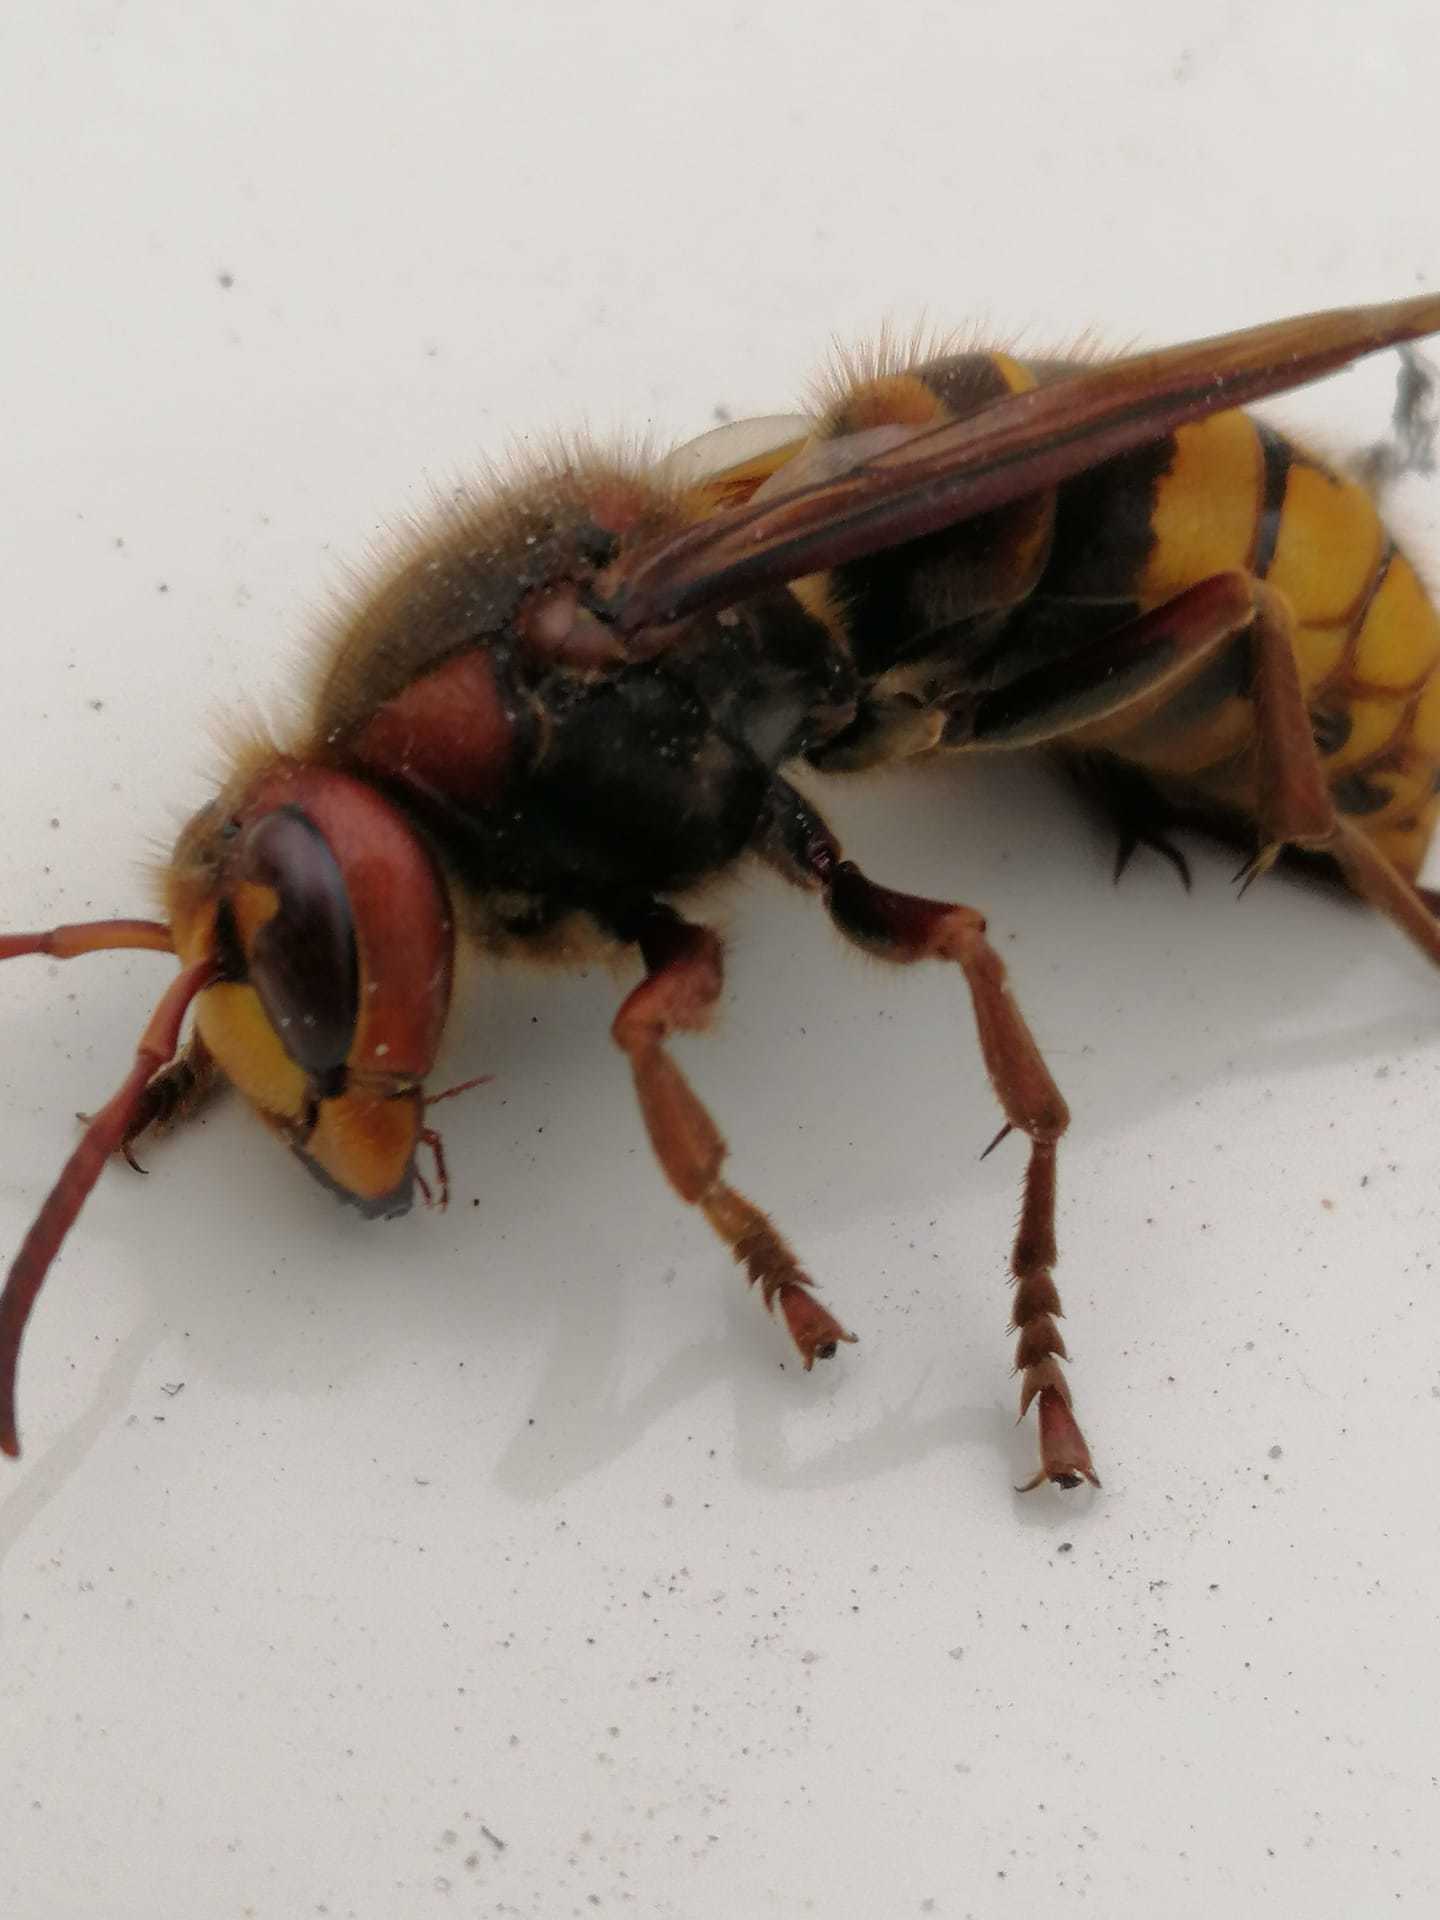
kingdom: Animalia
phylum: Arthropoda
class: Insecta
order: Hymenoptera
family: Vespidae
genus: Vespa
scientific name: Vespa crabro
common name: Hornet
